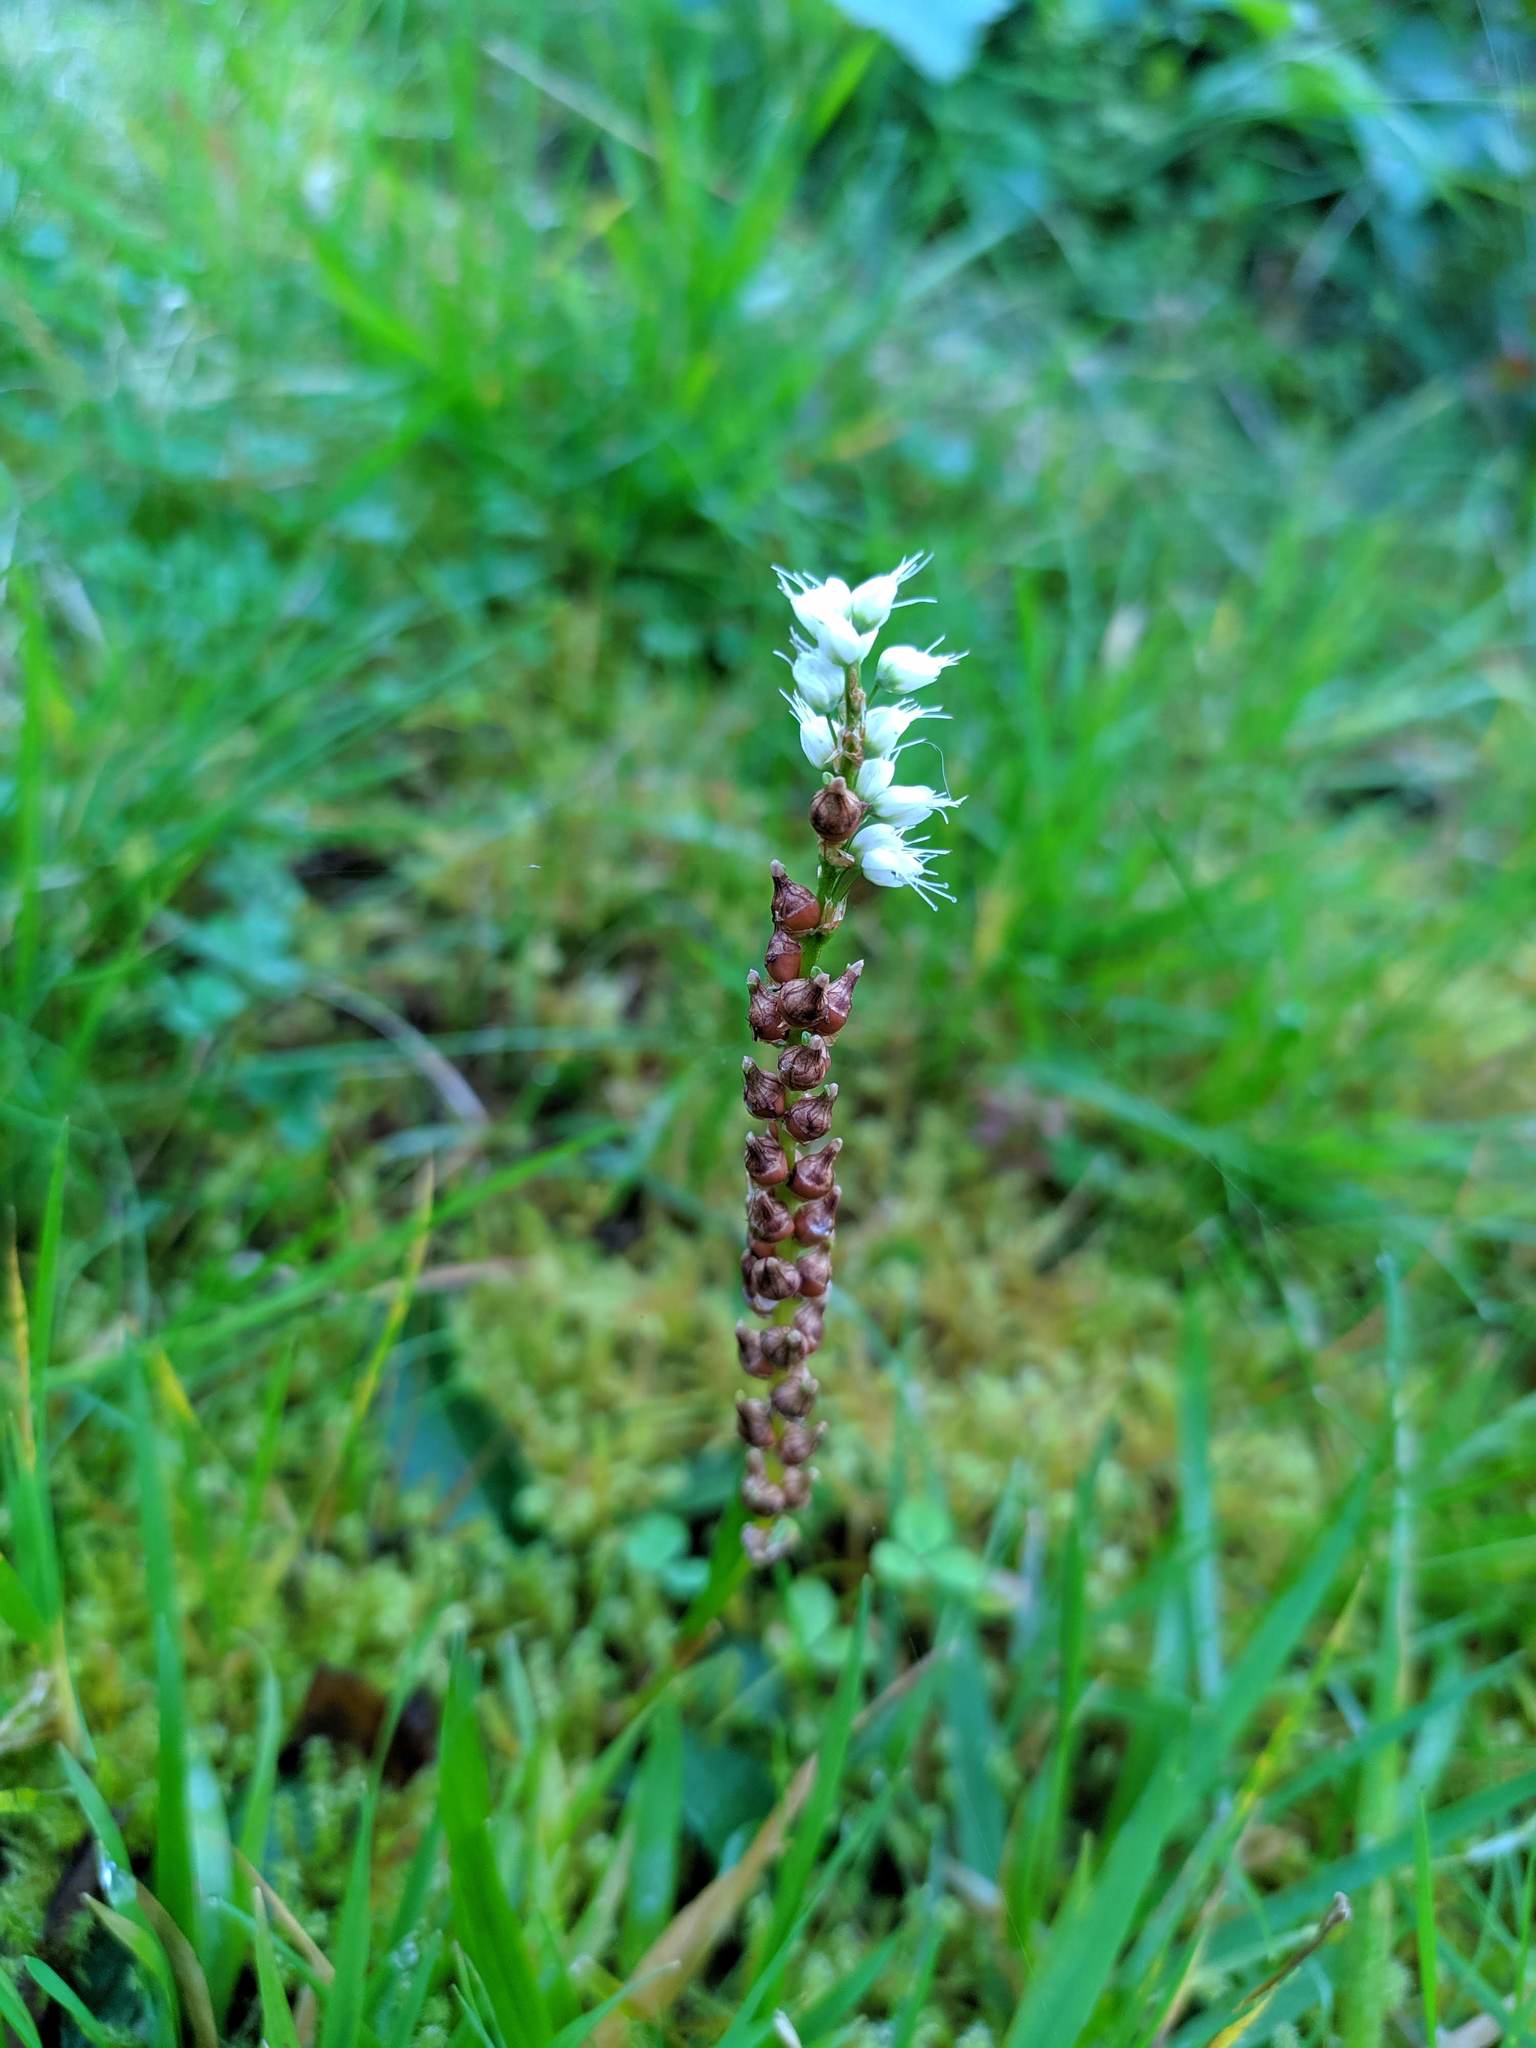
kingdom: Plantae
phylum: Tracheophyta
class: Magnoliopsida
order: Caryophyllales
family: Polygonaceae
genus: Bistorta
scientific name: Bistorta vivipara
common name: Alpine bistort
